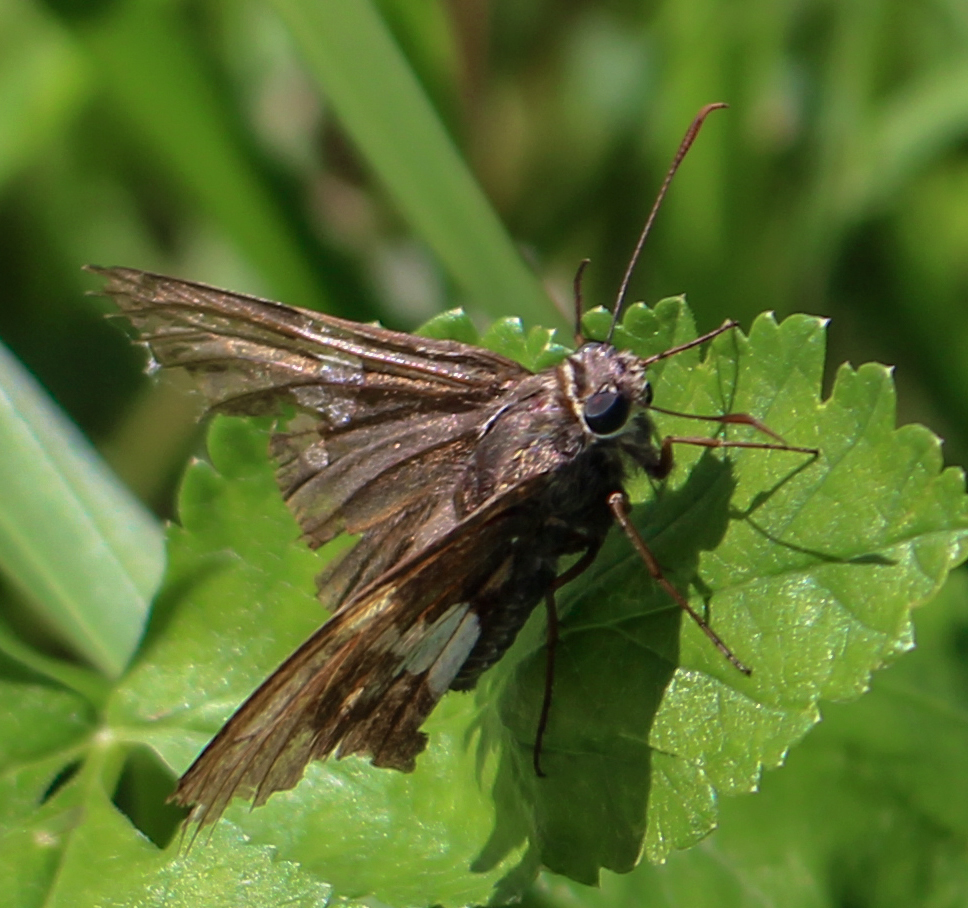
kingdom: Animalia
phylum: Arthropoda
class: Insecta
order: Lepidoptera
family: Hesperiidae
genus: Epargyreus
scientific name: Epargyreus clarus
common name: Silver-spotted skipper
